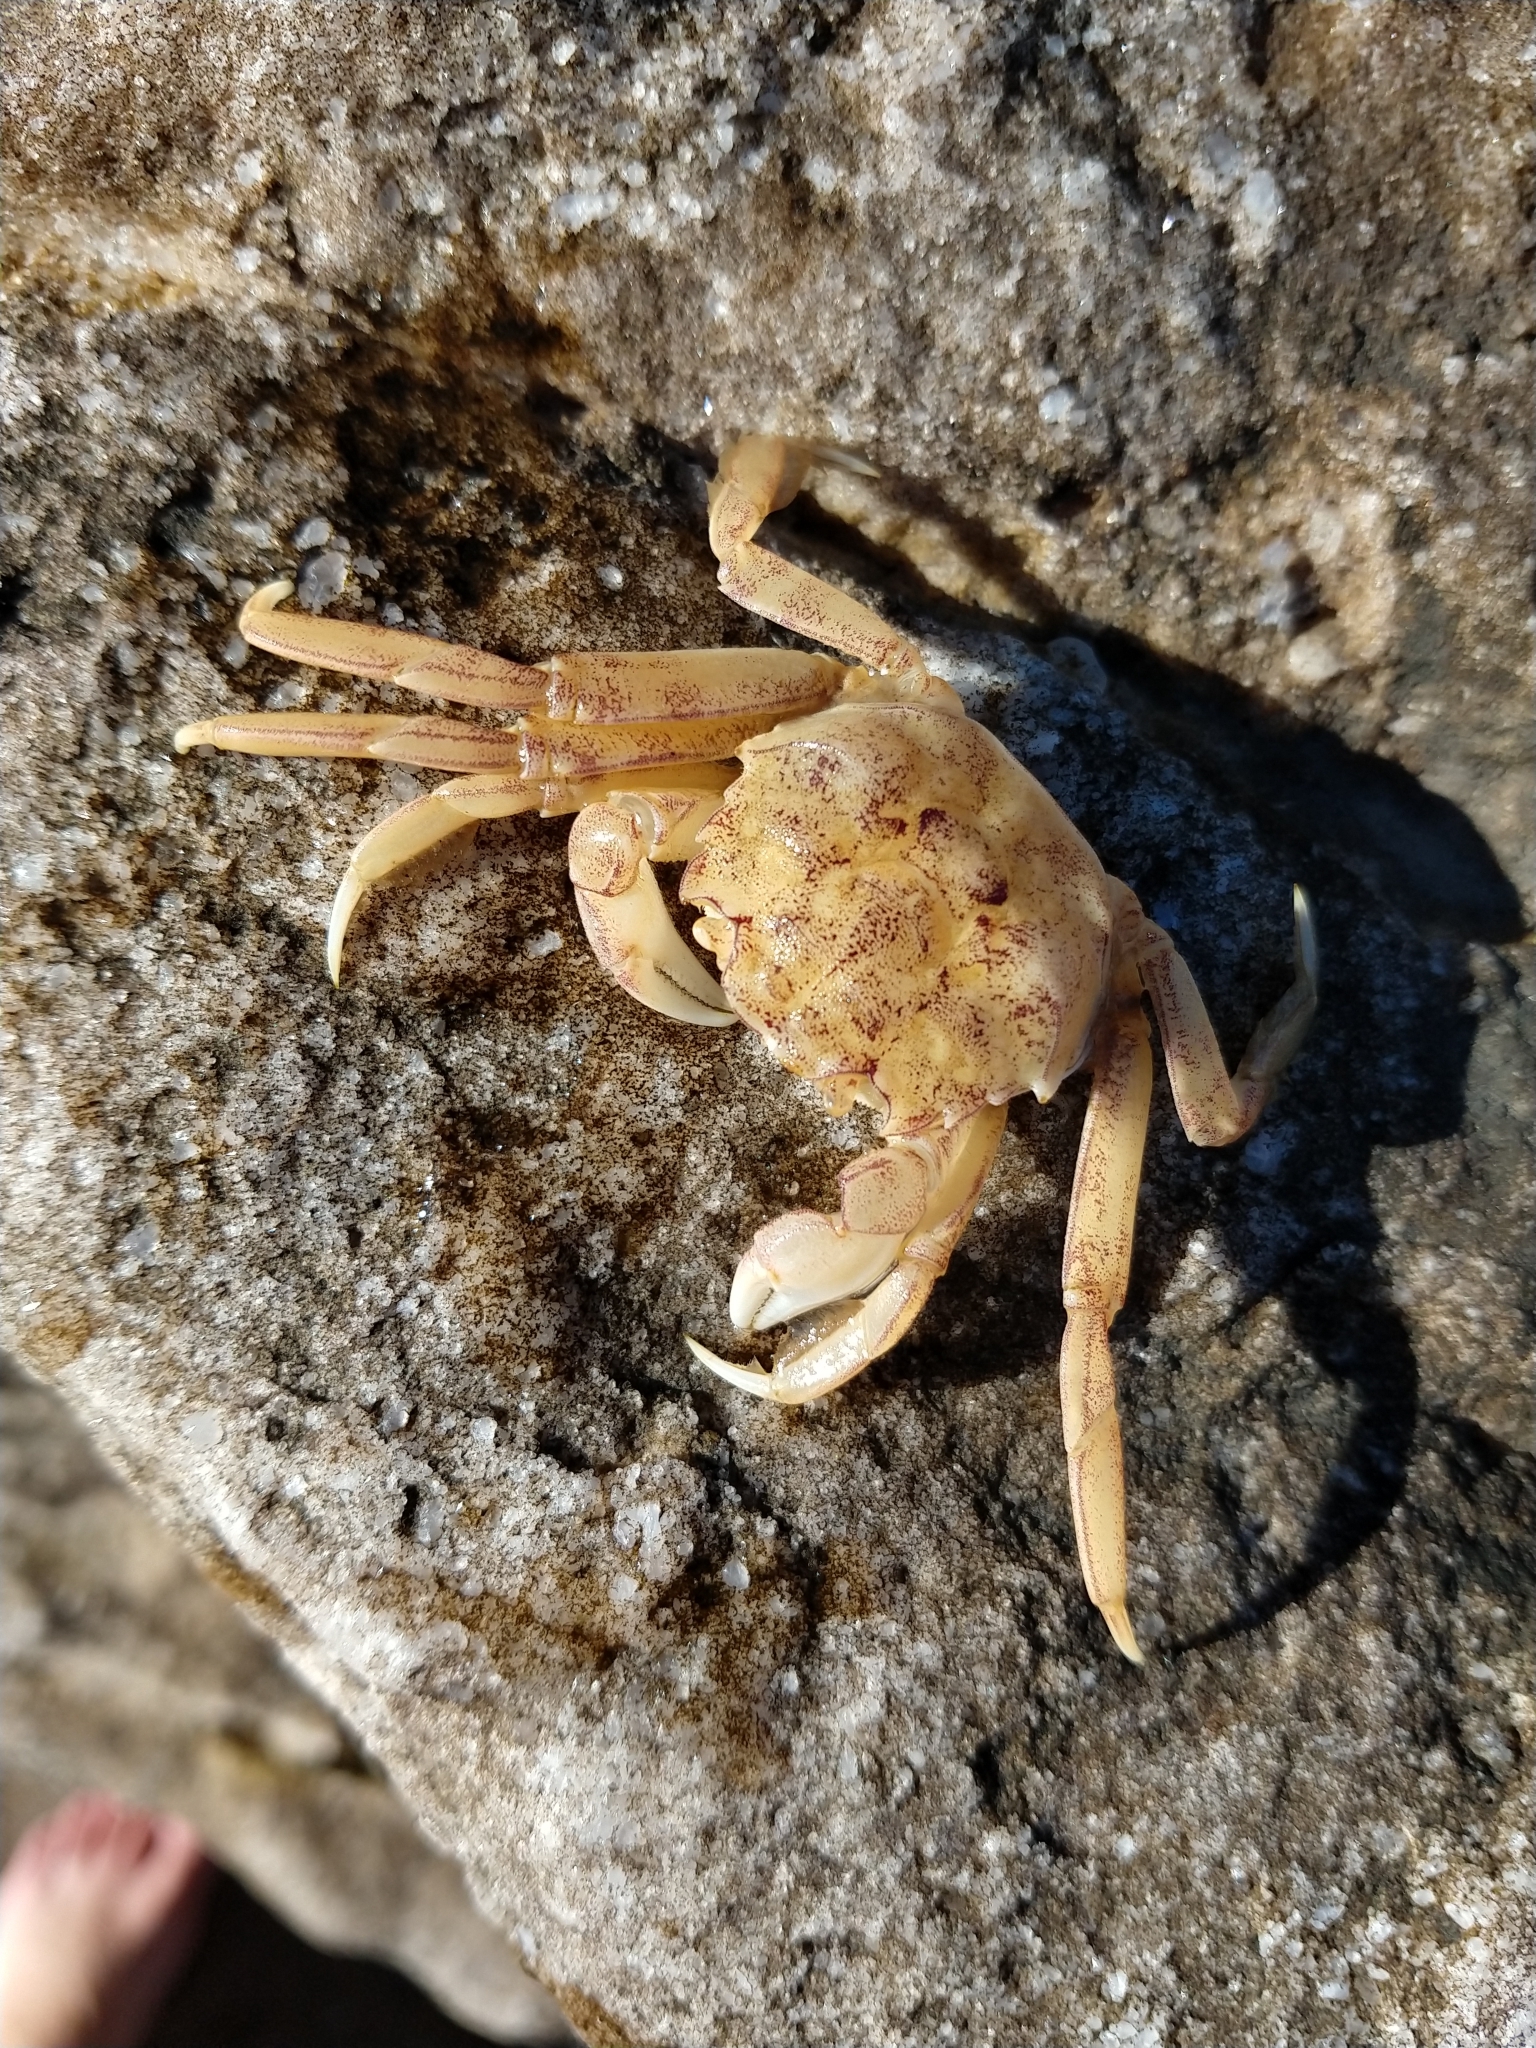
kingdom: Animalia
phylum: Arthropoda
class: Malacostraca
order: Decapoda
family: Varunidae
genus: Cyrtograpsus
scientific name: Cyrtograpsus angulatus
